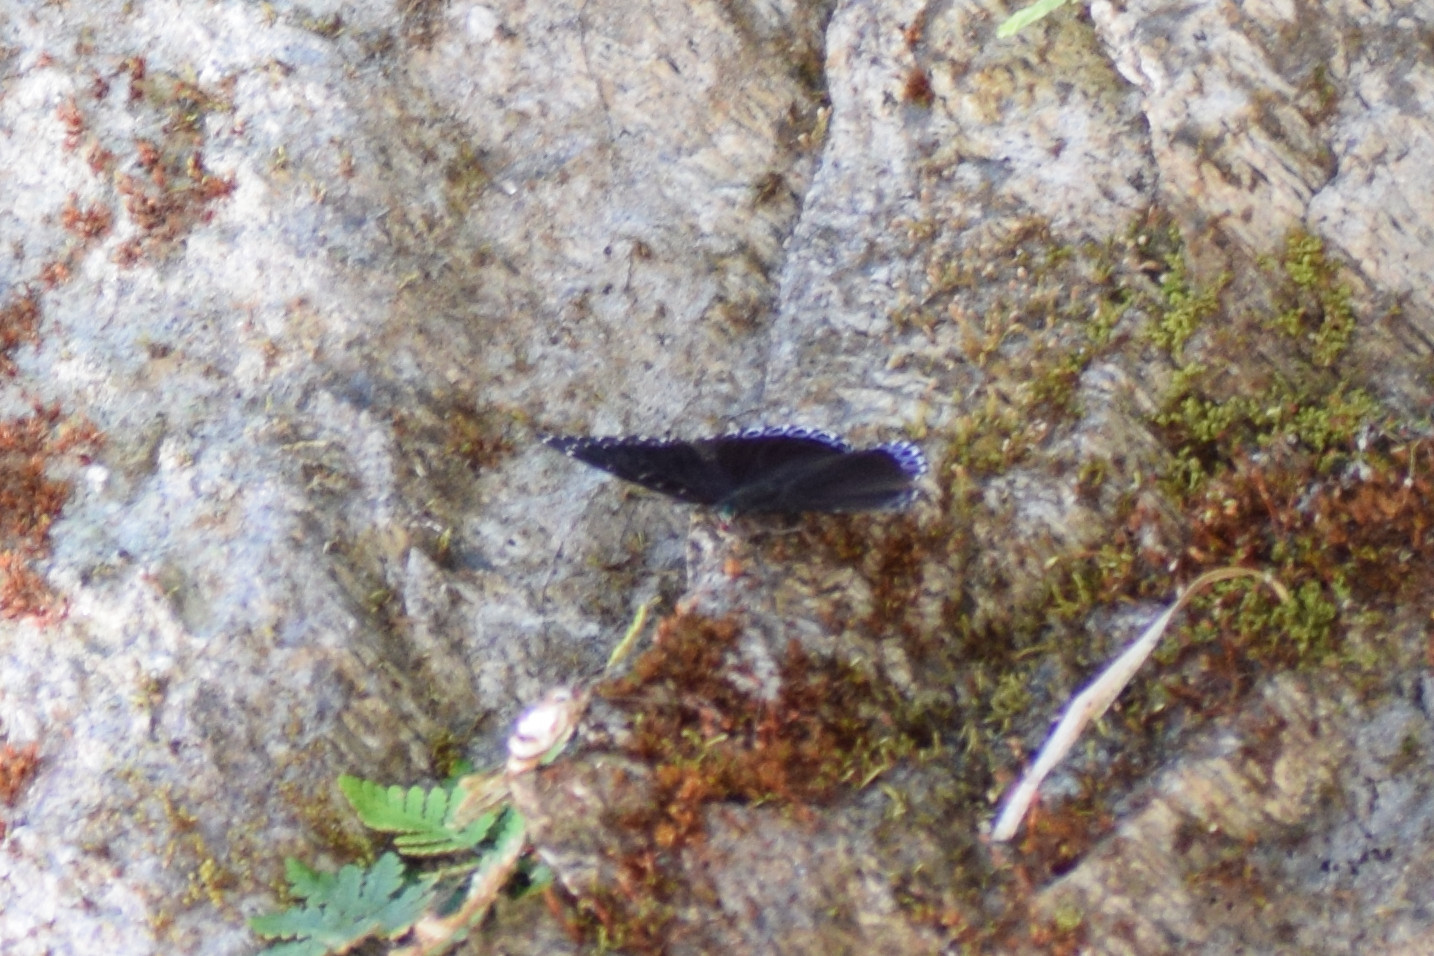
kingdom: Animalia
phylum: Arthropoda
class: Insecta
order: Lepidoptera
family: Nymphalidae
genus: Stibochiona
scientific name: Stibochiona nicea
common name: Popinjay
